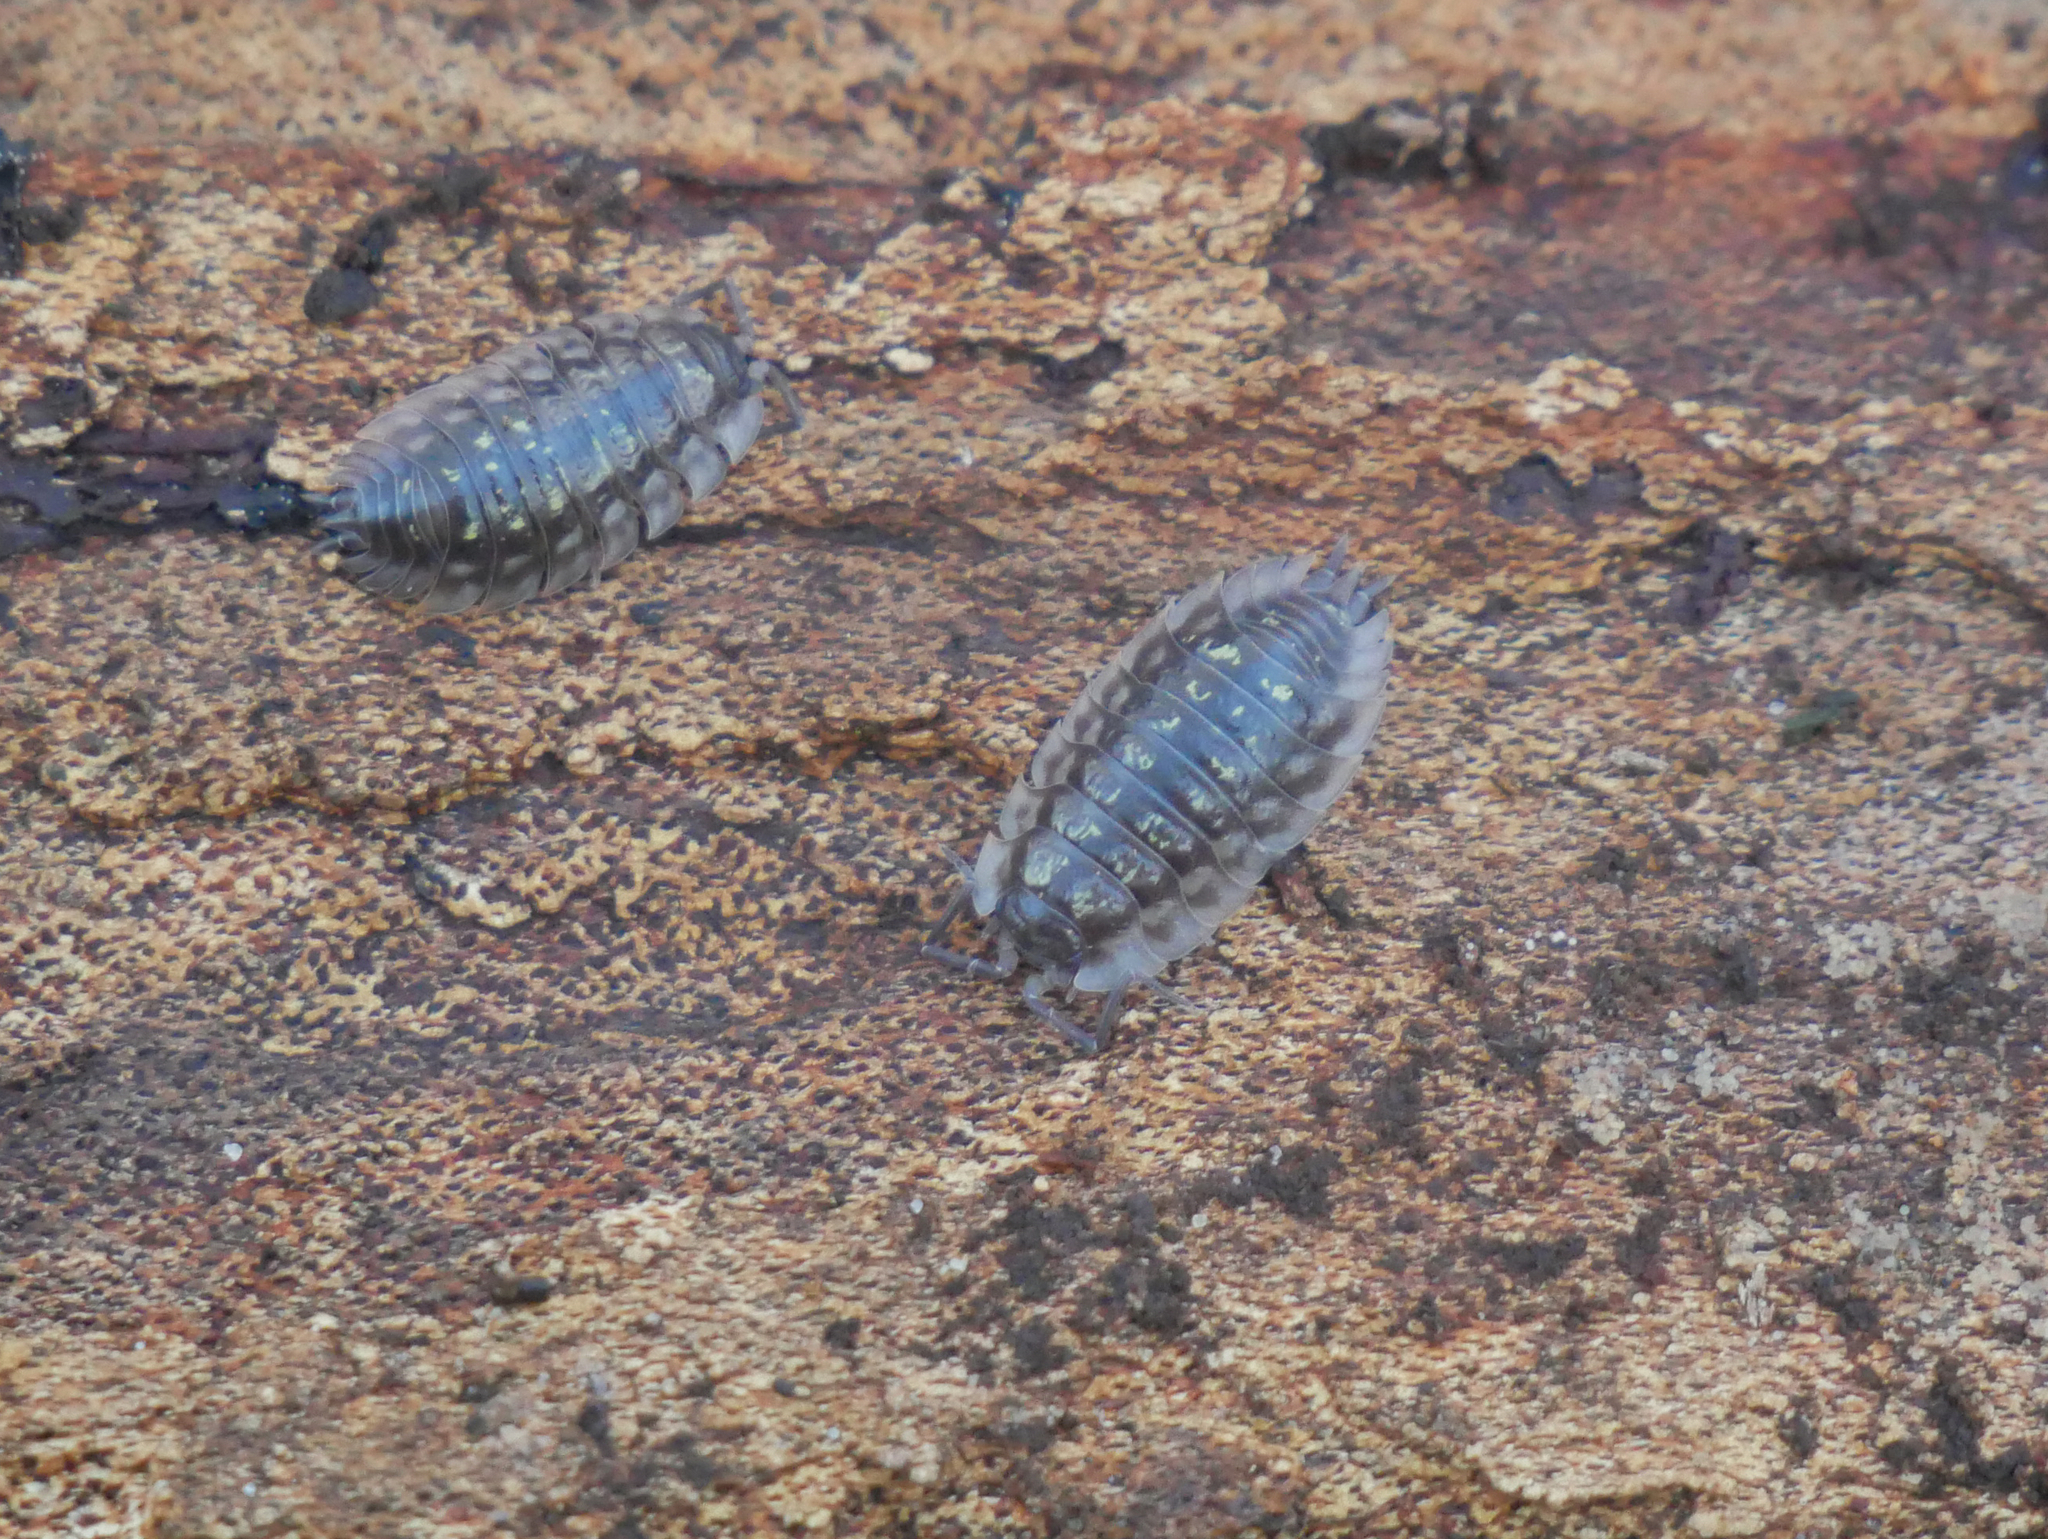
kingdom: Animalia
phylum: Arthropoda
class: Malacostraca
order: Isopoda
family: Oniscidae
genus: Oniscus
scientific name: Oniscus asellus
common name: Common shiny woodlouse
